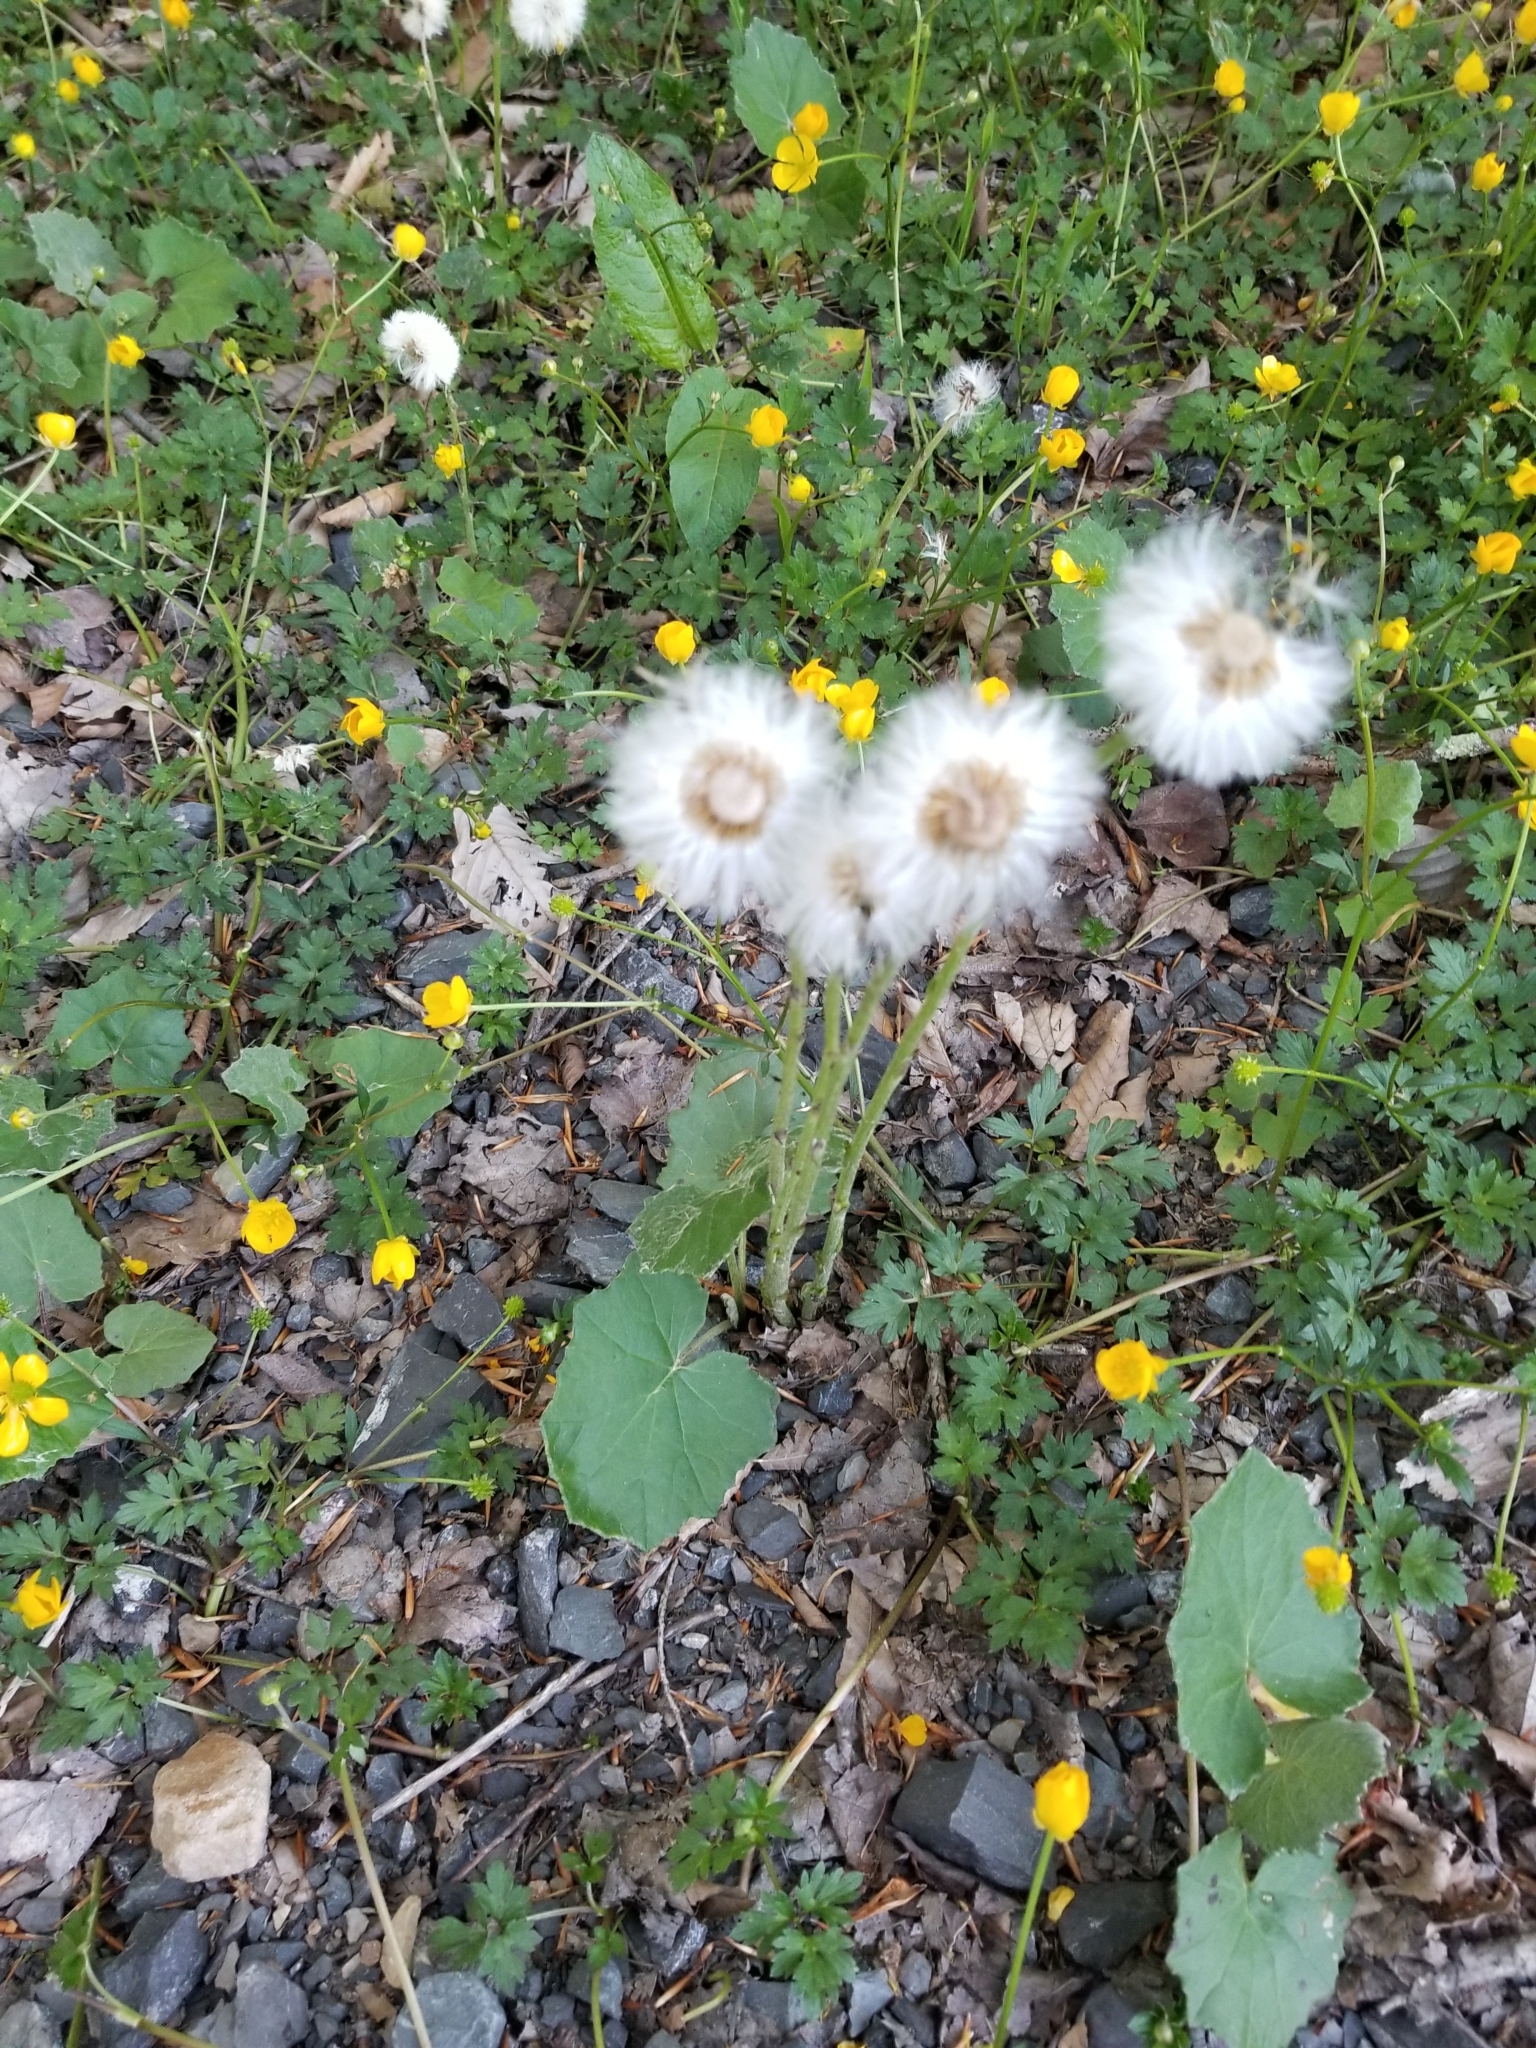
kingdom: Plantae
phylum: Tracheophyta
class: Magnoliopsida
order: Asterales
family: Asteraceae
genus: Tussilago
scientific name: Tussilago farfara
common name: Coltsfoot
